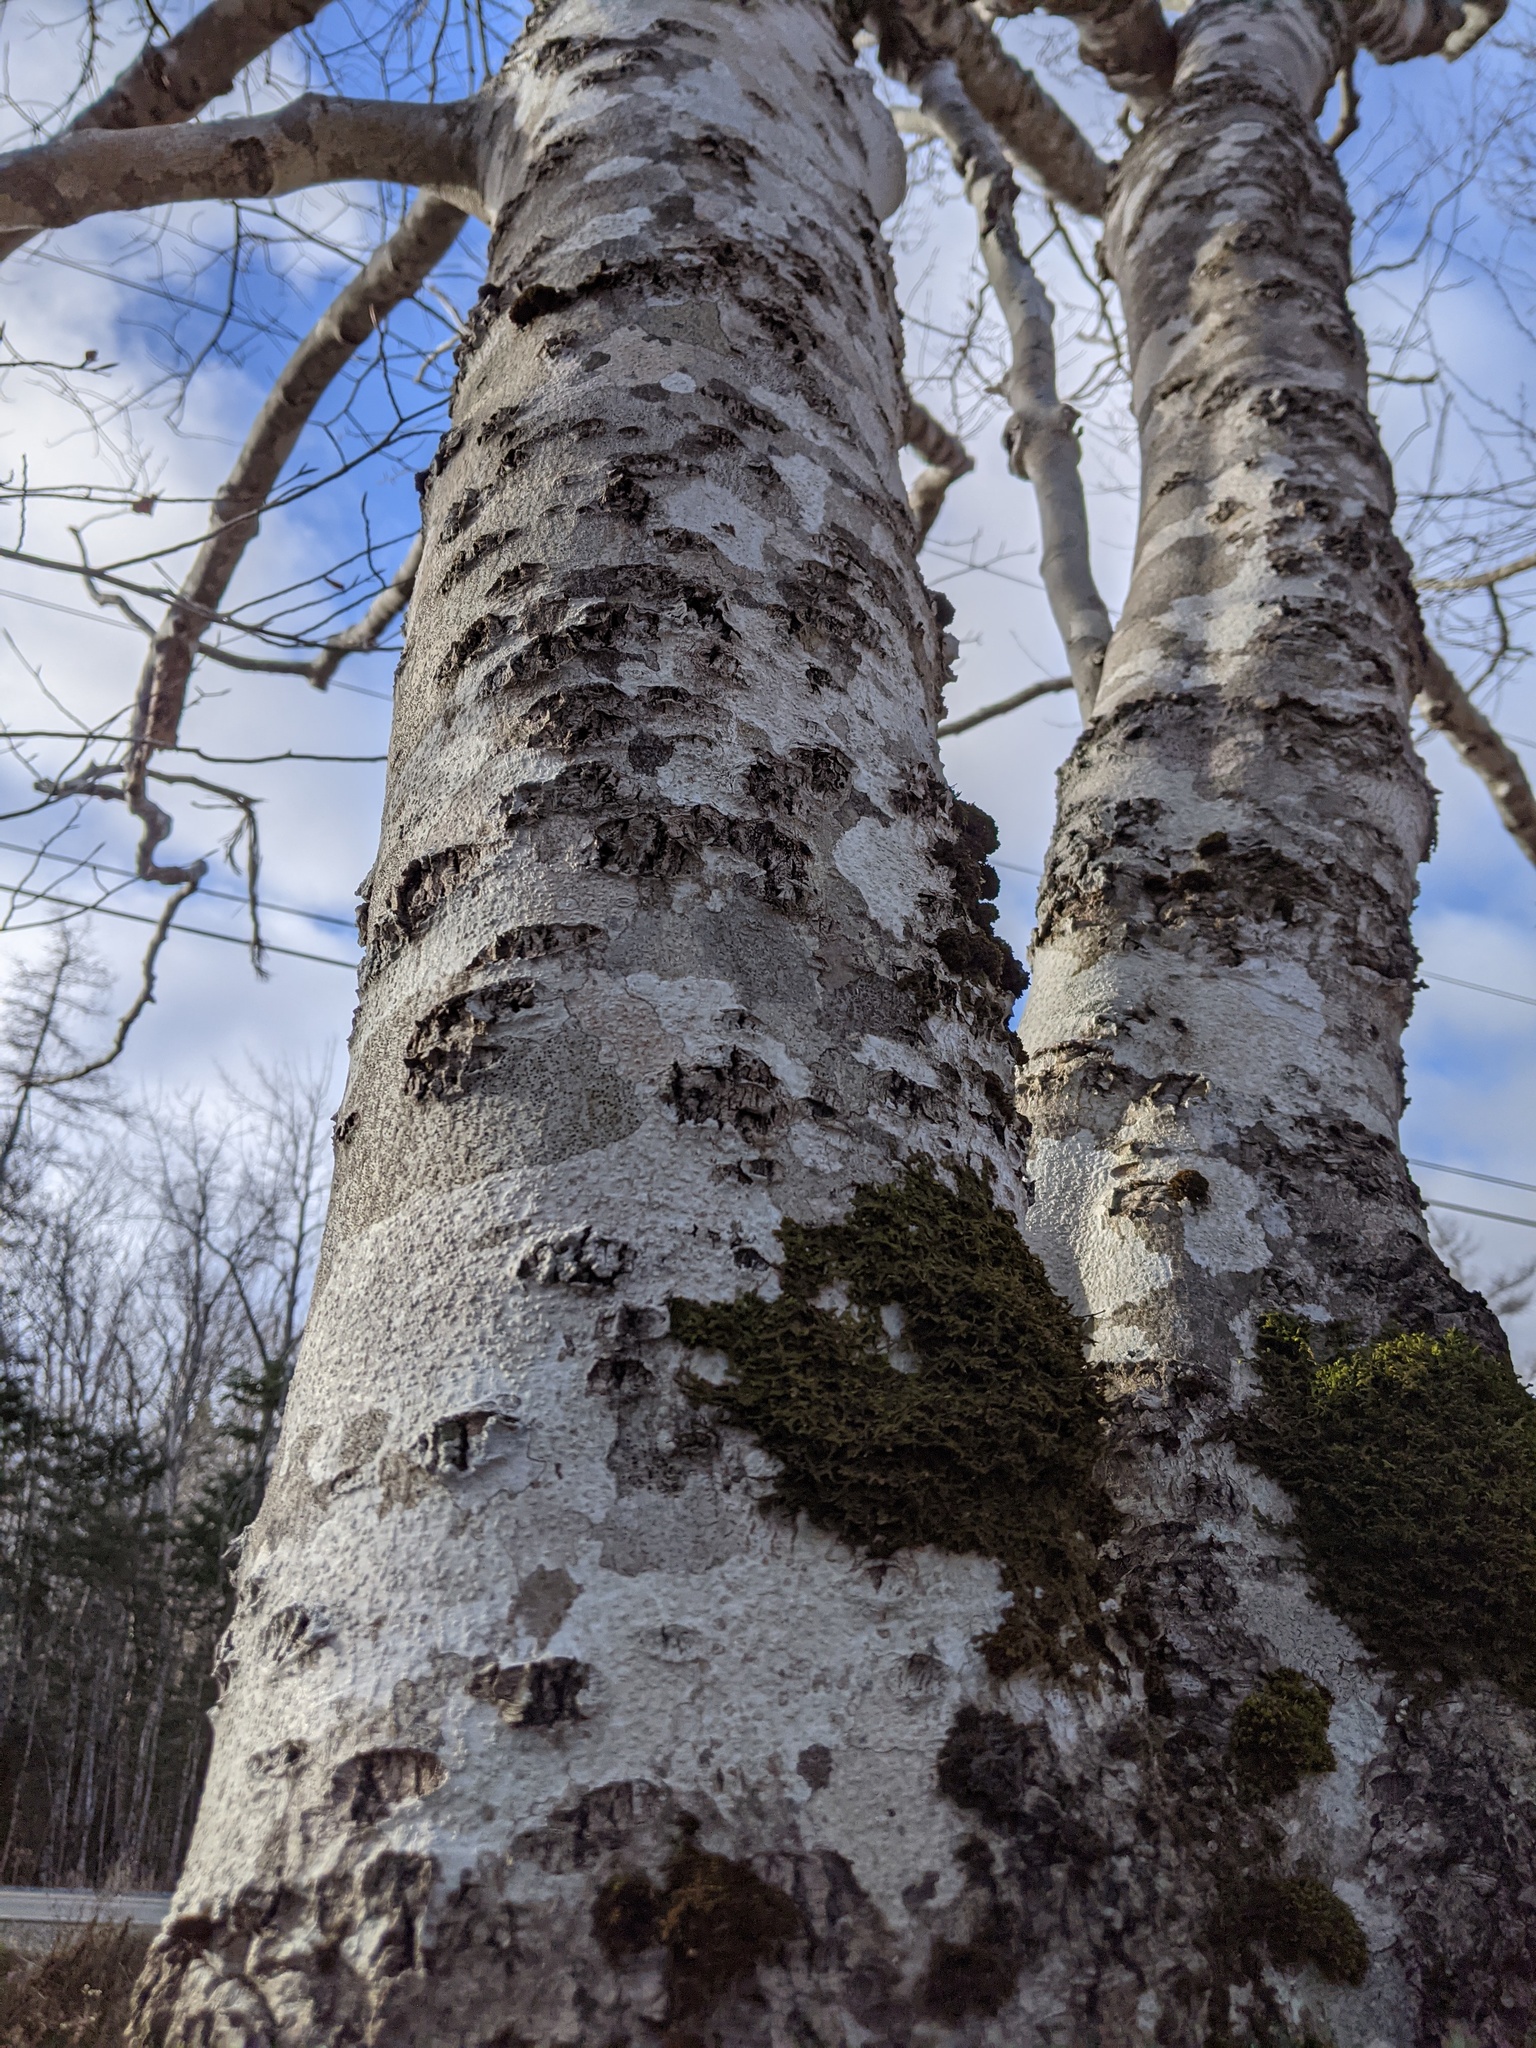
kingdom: Plantae
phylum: Marchantiophyta
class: Jungermanniopsida
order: Porellales
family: Porellaceae
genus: Porella
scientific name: Porella platyphylla
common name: Wall scalewort
